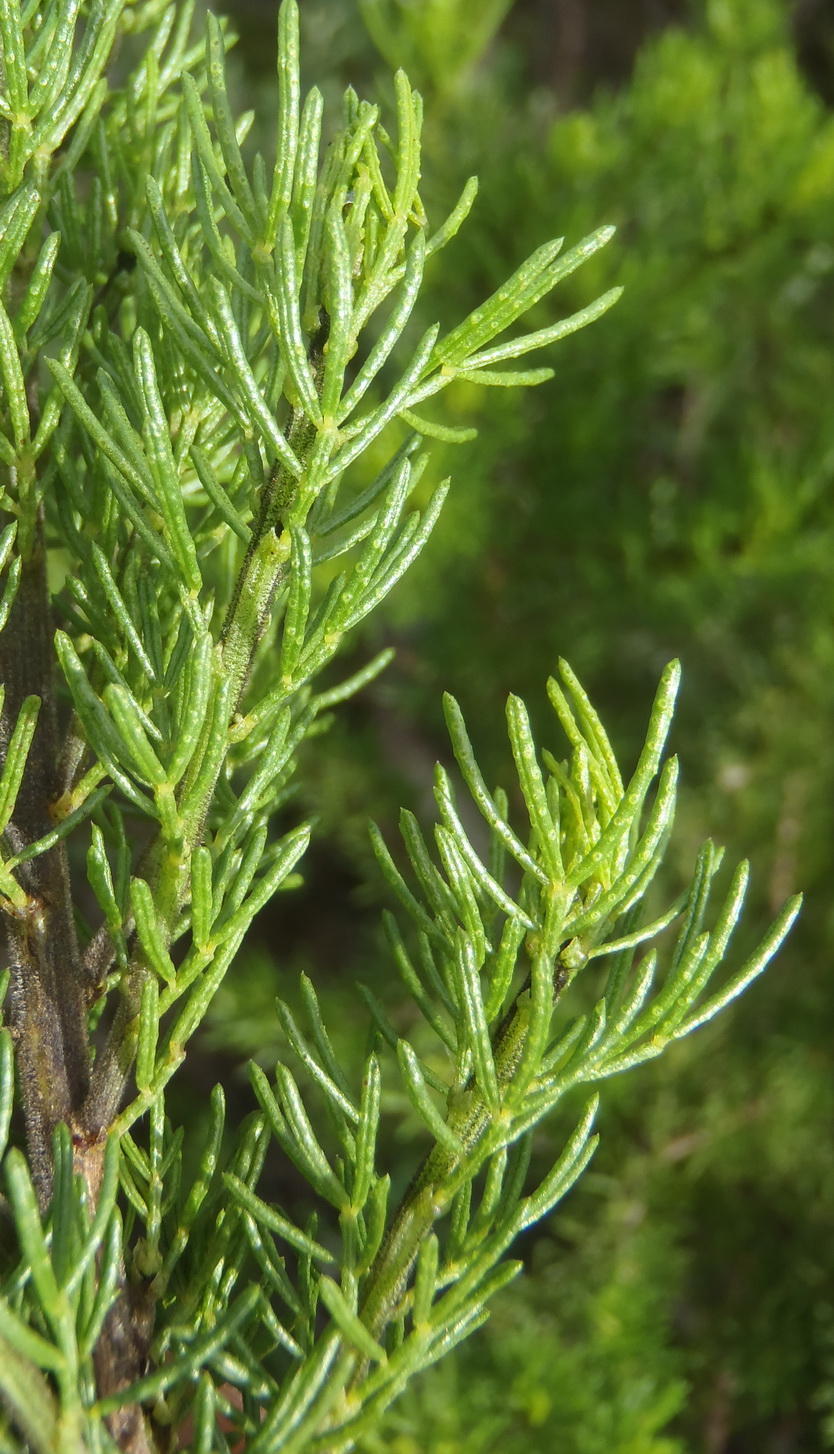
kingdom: Plantae
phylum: Tracheophyta
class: Magnoliopsida
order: Fabales
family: Fabaceae
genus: Psoralea
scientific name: Psoralea vanberkelae
